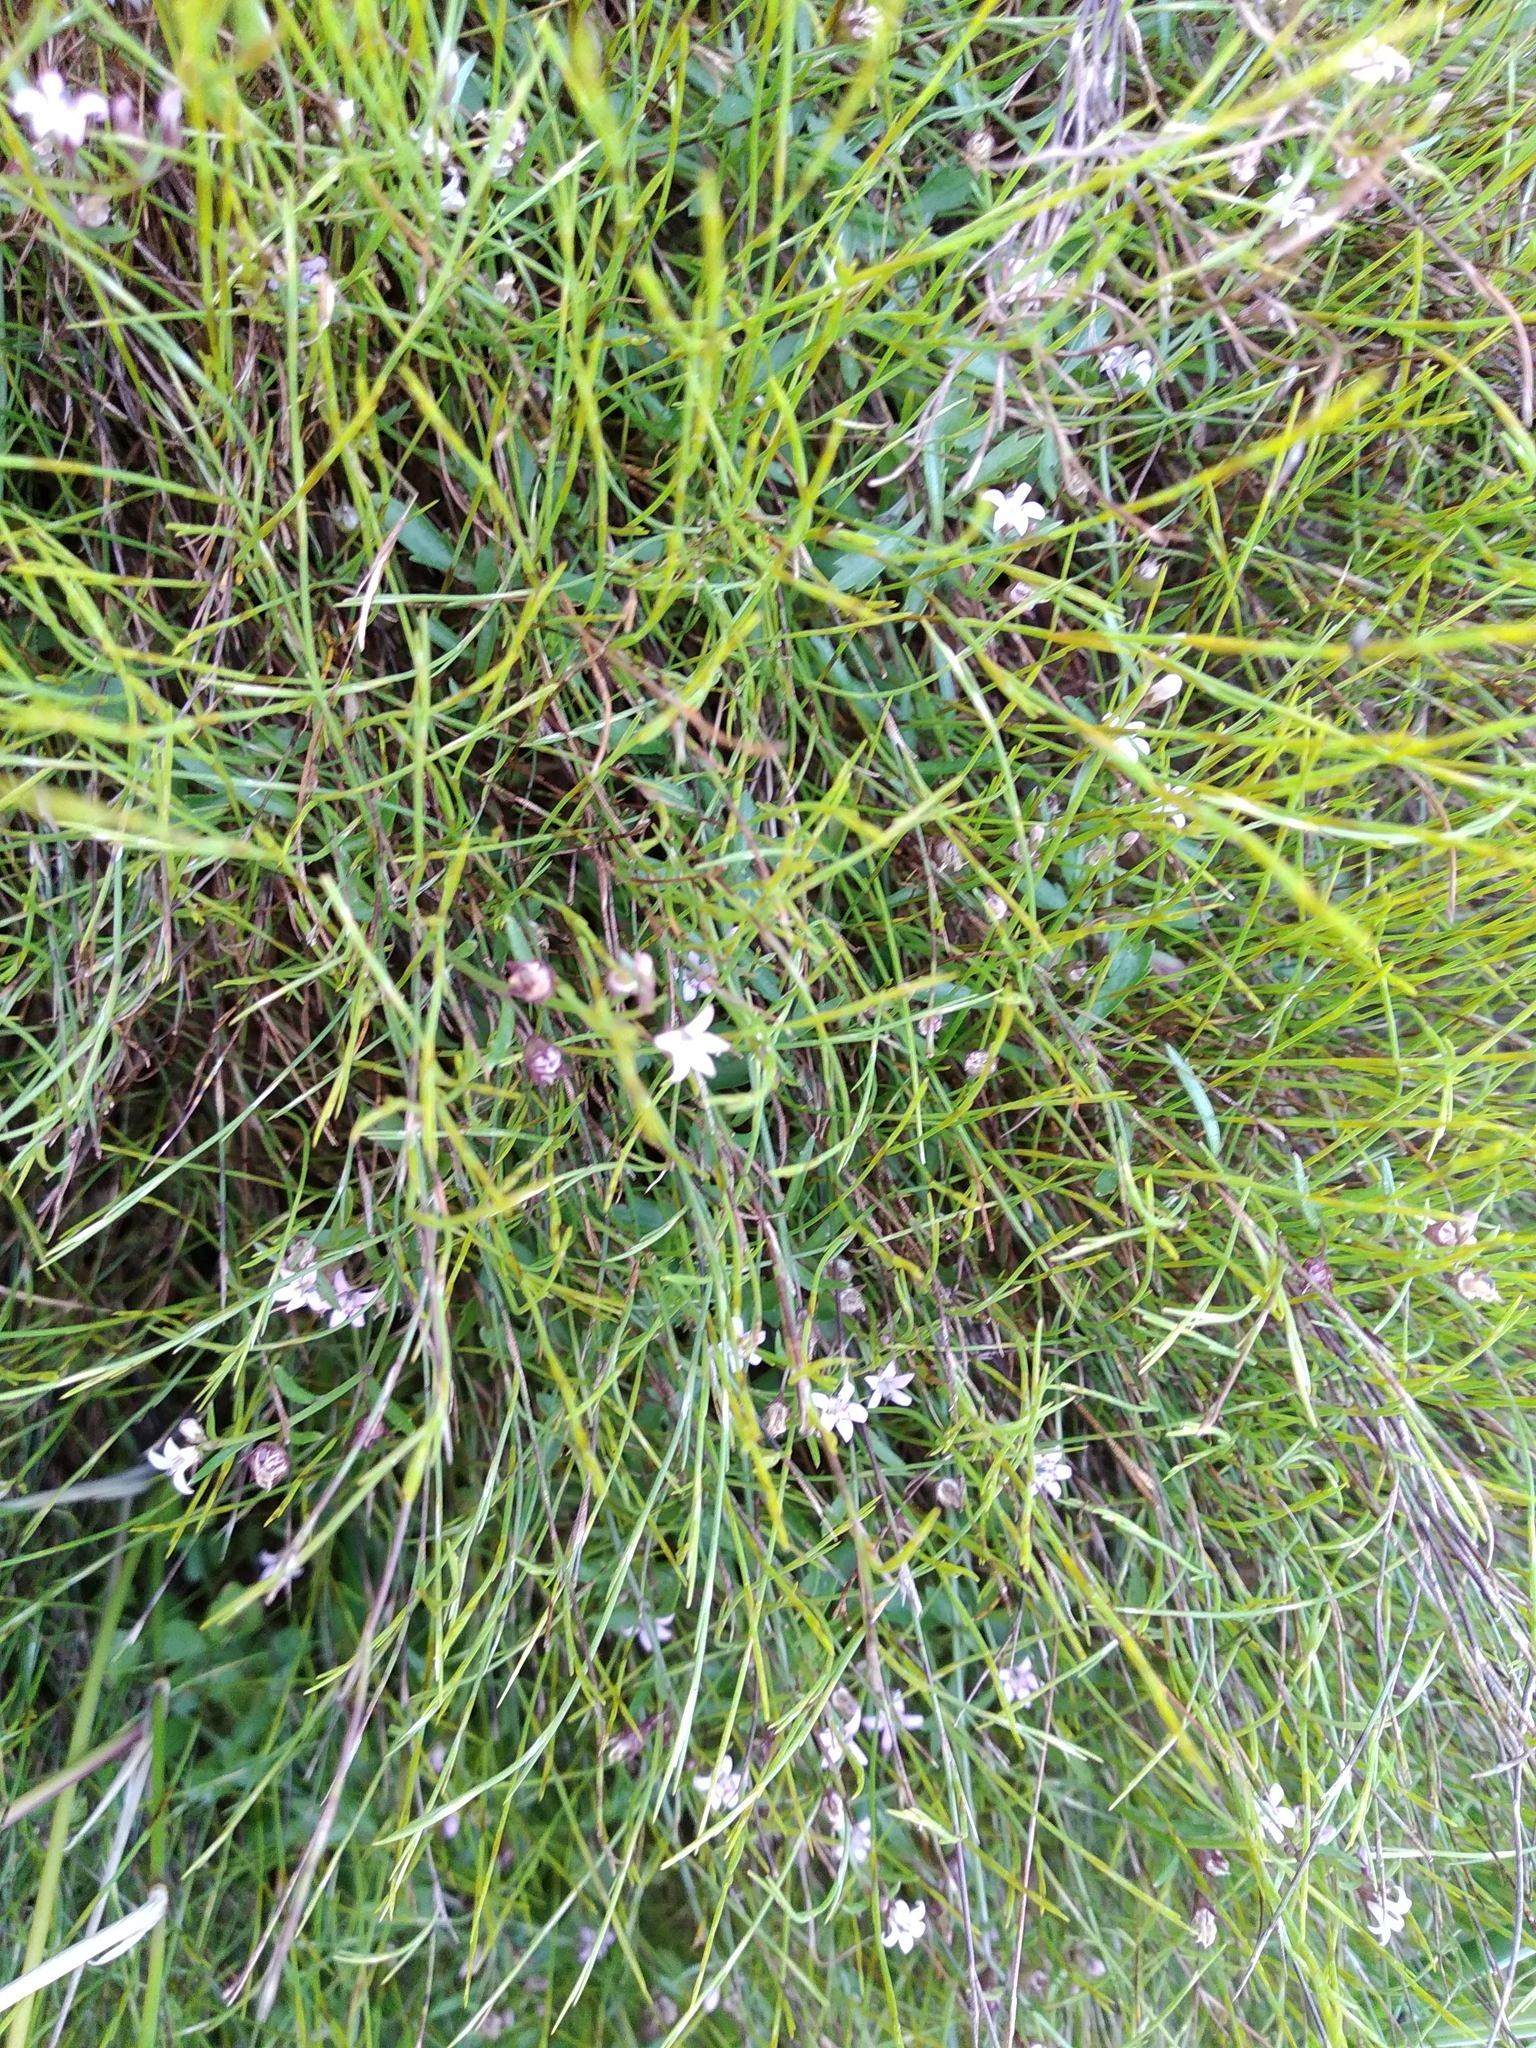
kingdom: Plantae
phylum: Tracheophyta
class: Magnoliopsida
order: Asterales
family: Campanulaceae
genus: Lobelia
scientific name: Lobelia eckloniana
